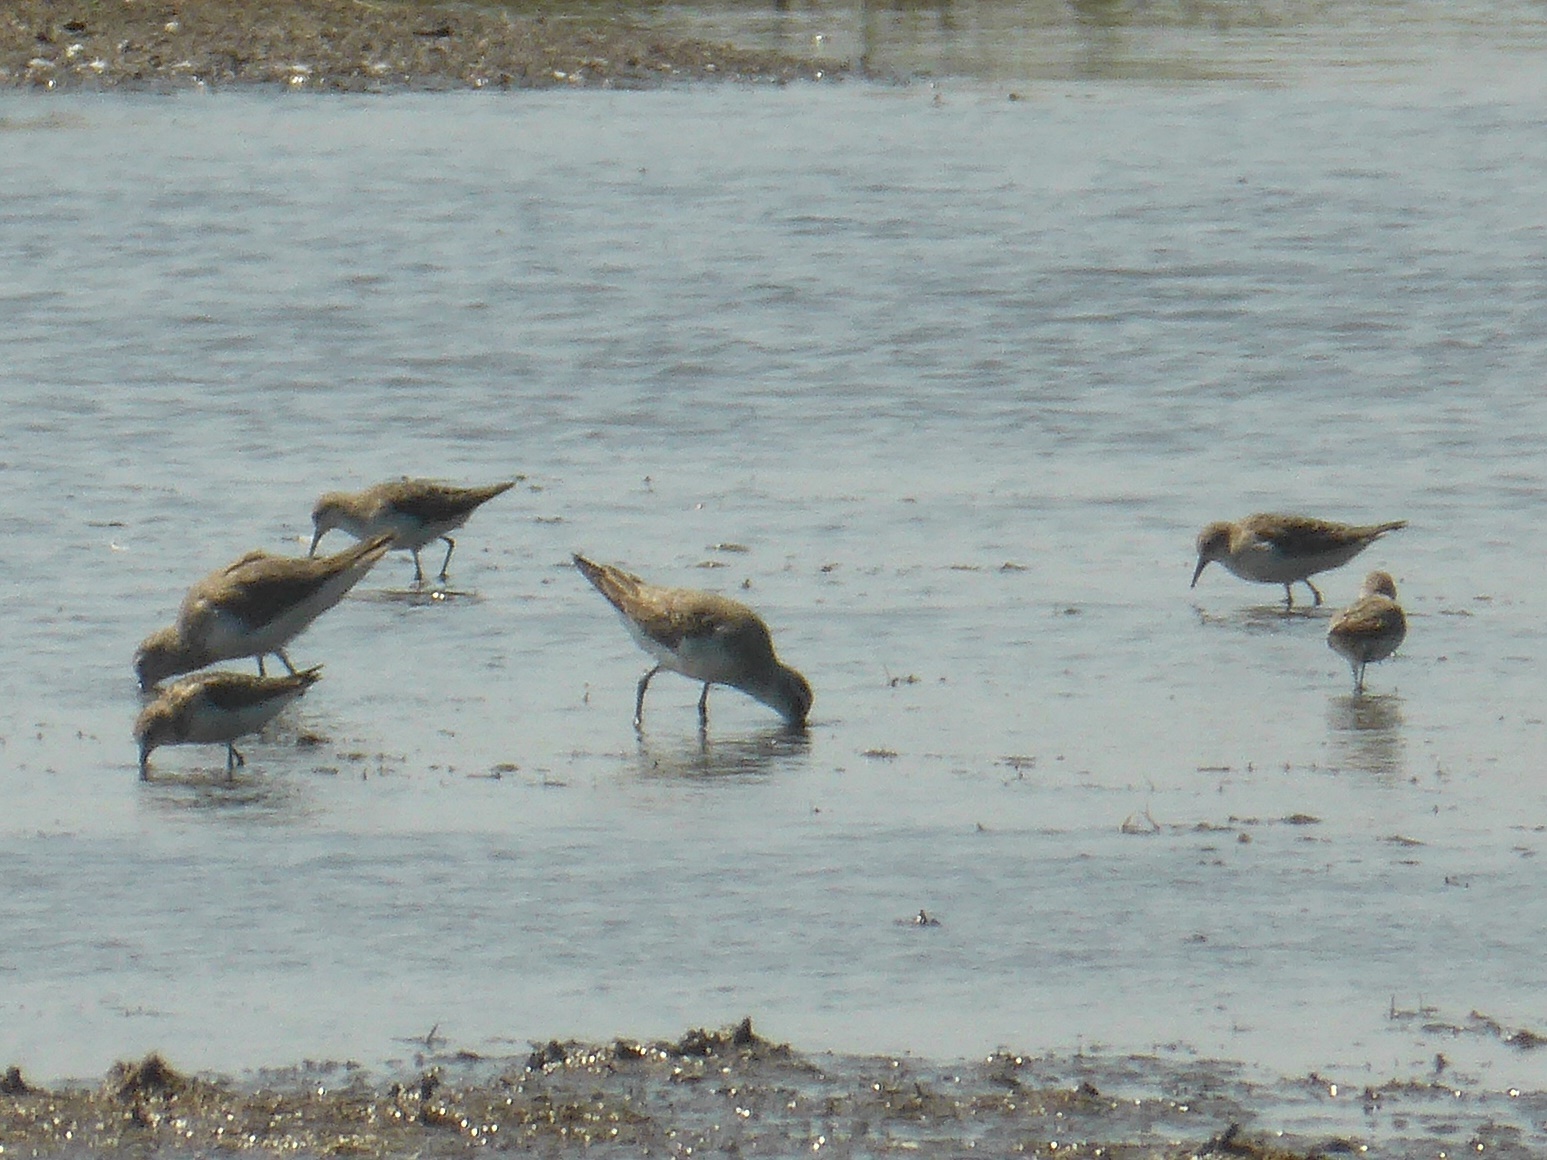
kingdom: Animalia
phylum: Chordata
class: Aves
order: Charadriiformes
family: Scolopacidae
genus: Calidris
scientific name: Calidris minuta
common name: Little stint
